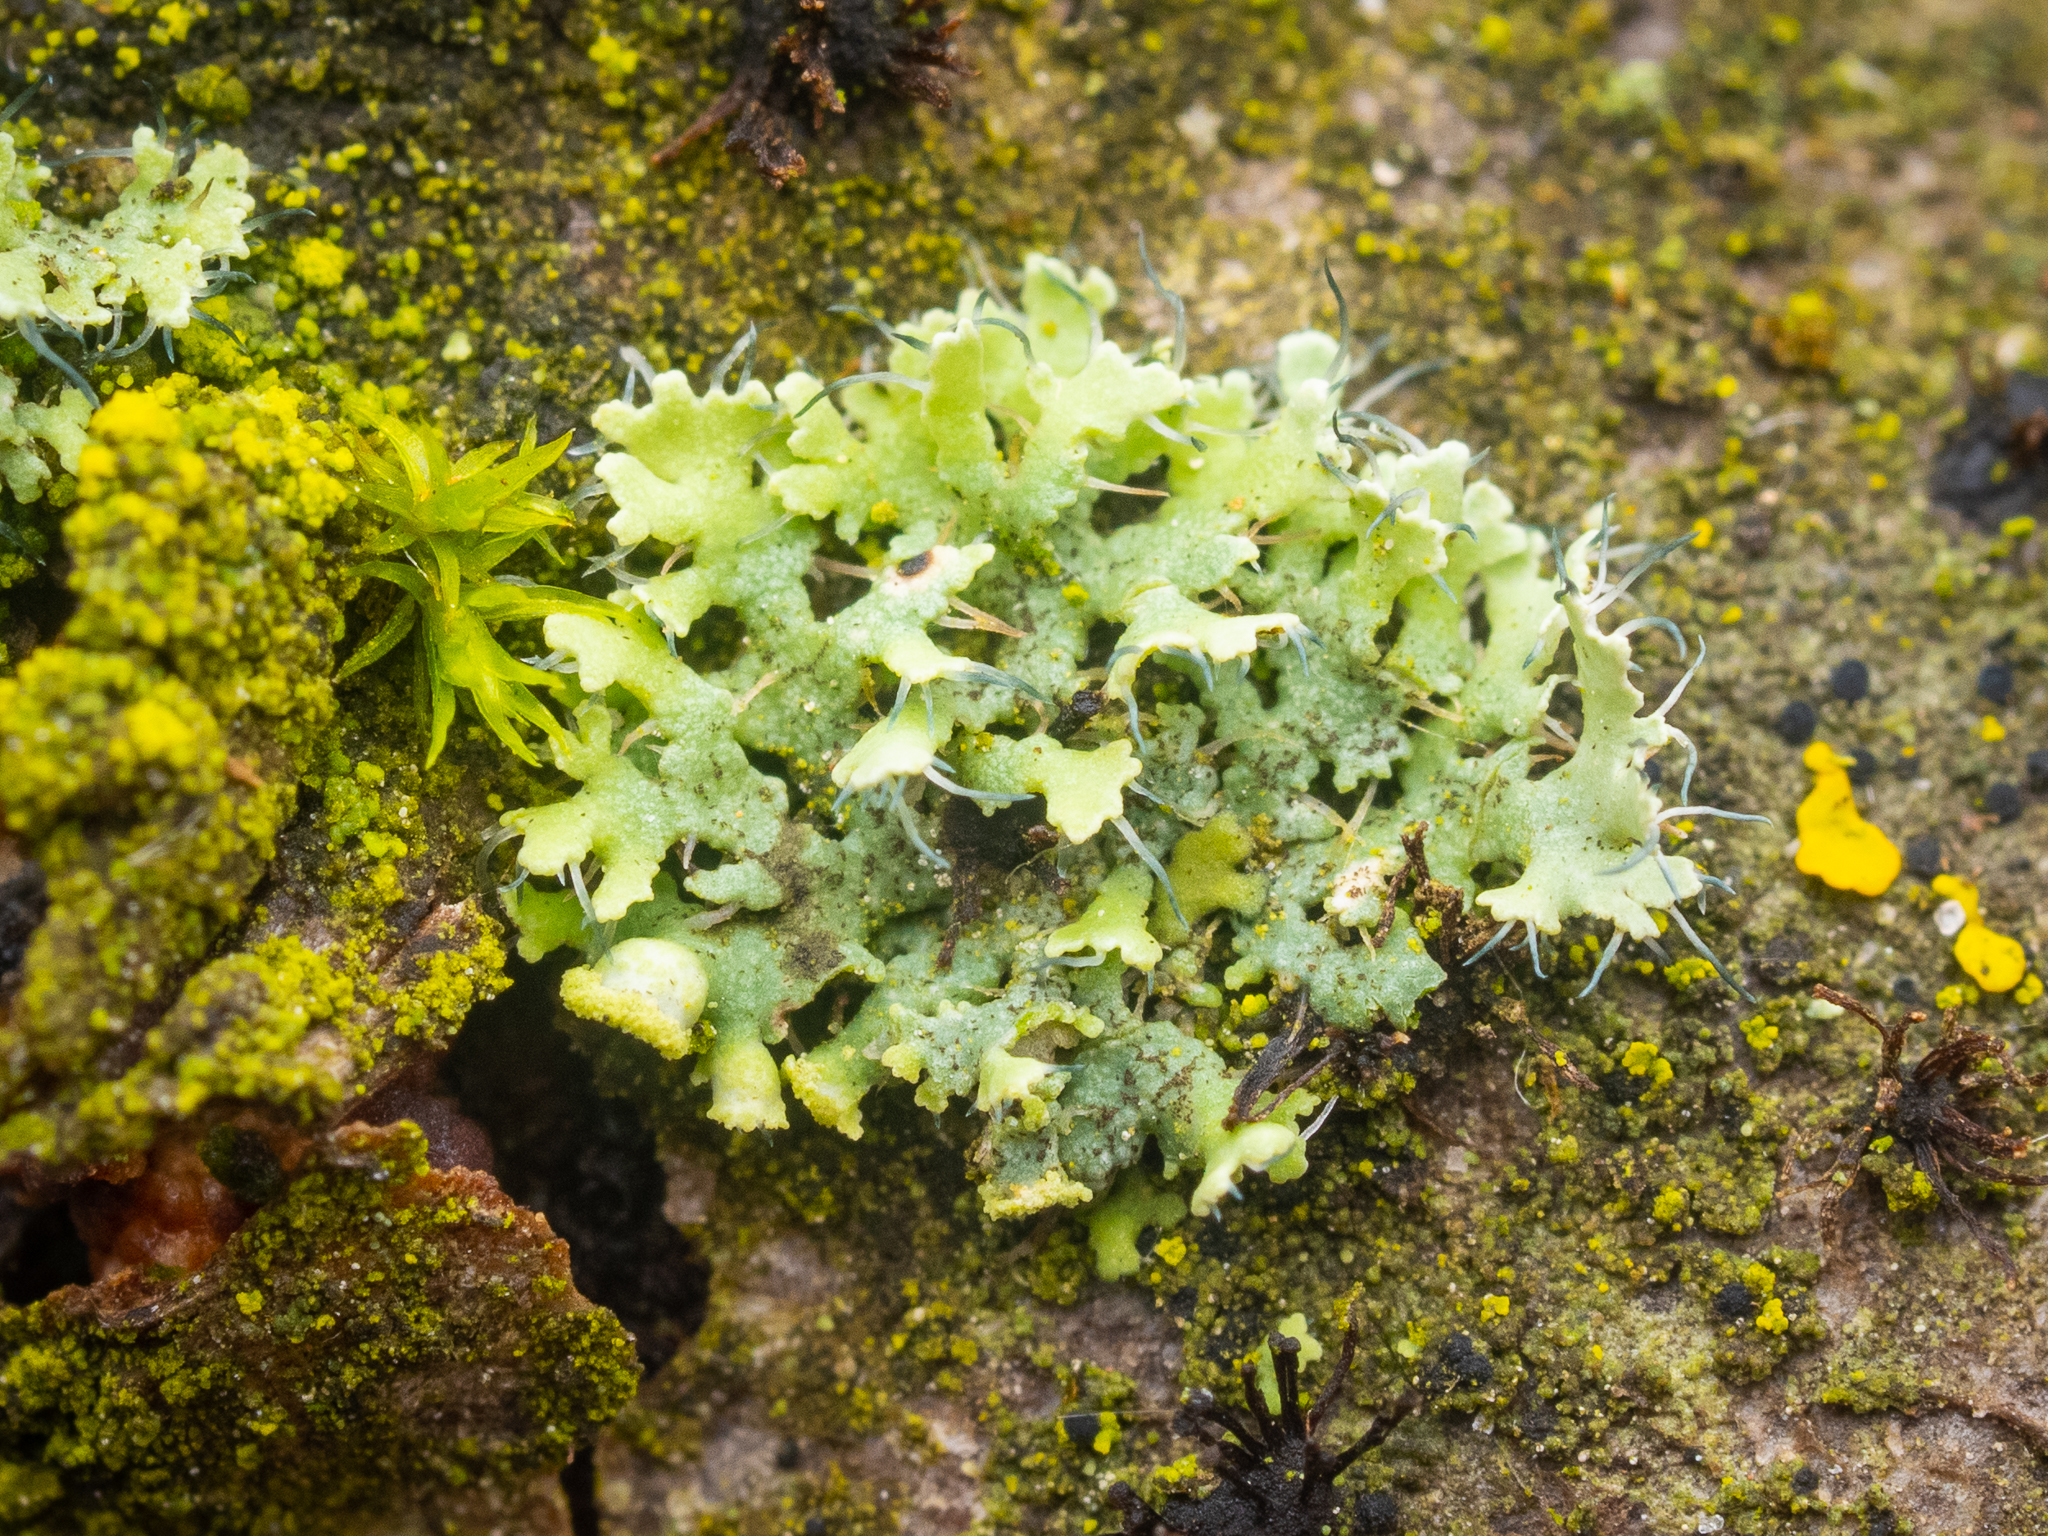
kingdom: Fungi
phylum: Ascomycota
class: Lecanoromycetes
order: Caliciales
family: Physciaceae
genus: Physcia
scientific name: Physcia adscendens
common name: Hooded rosette lichen
